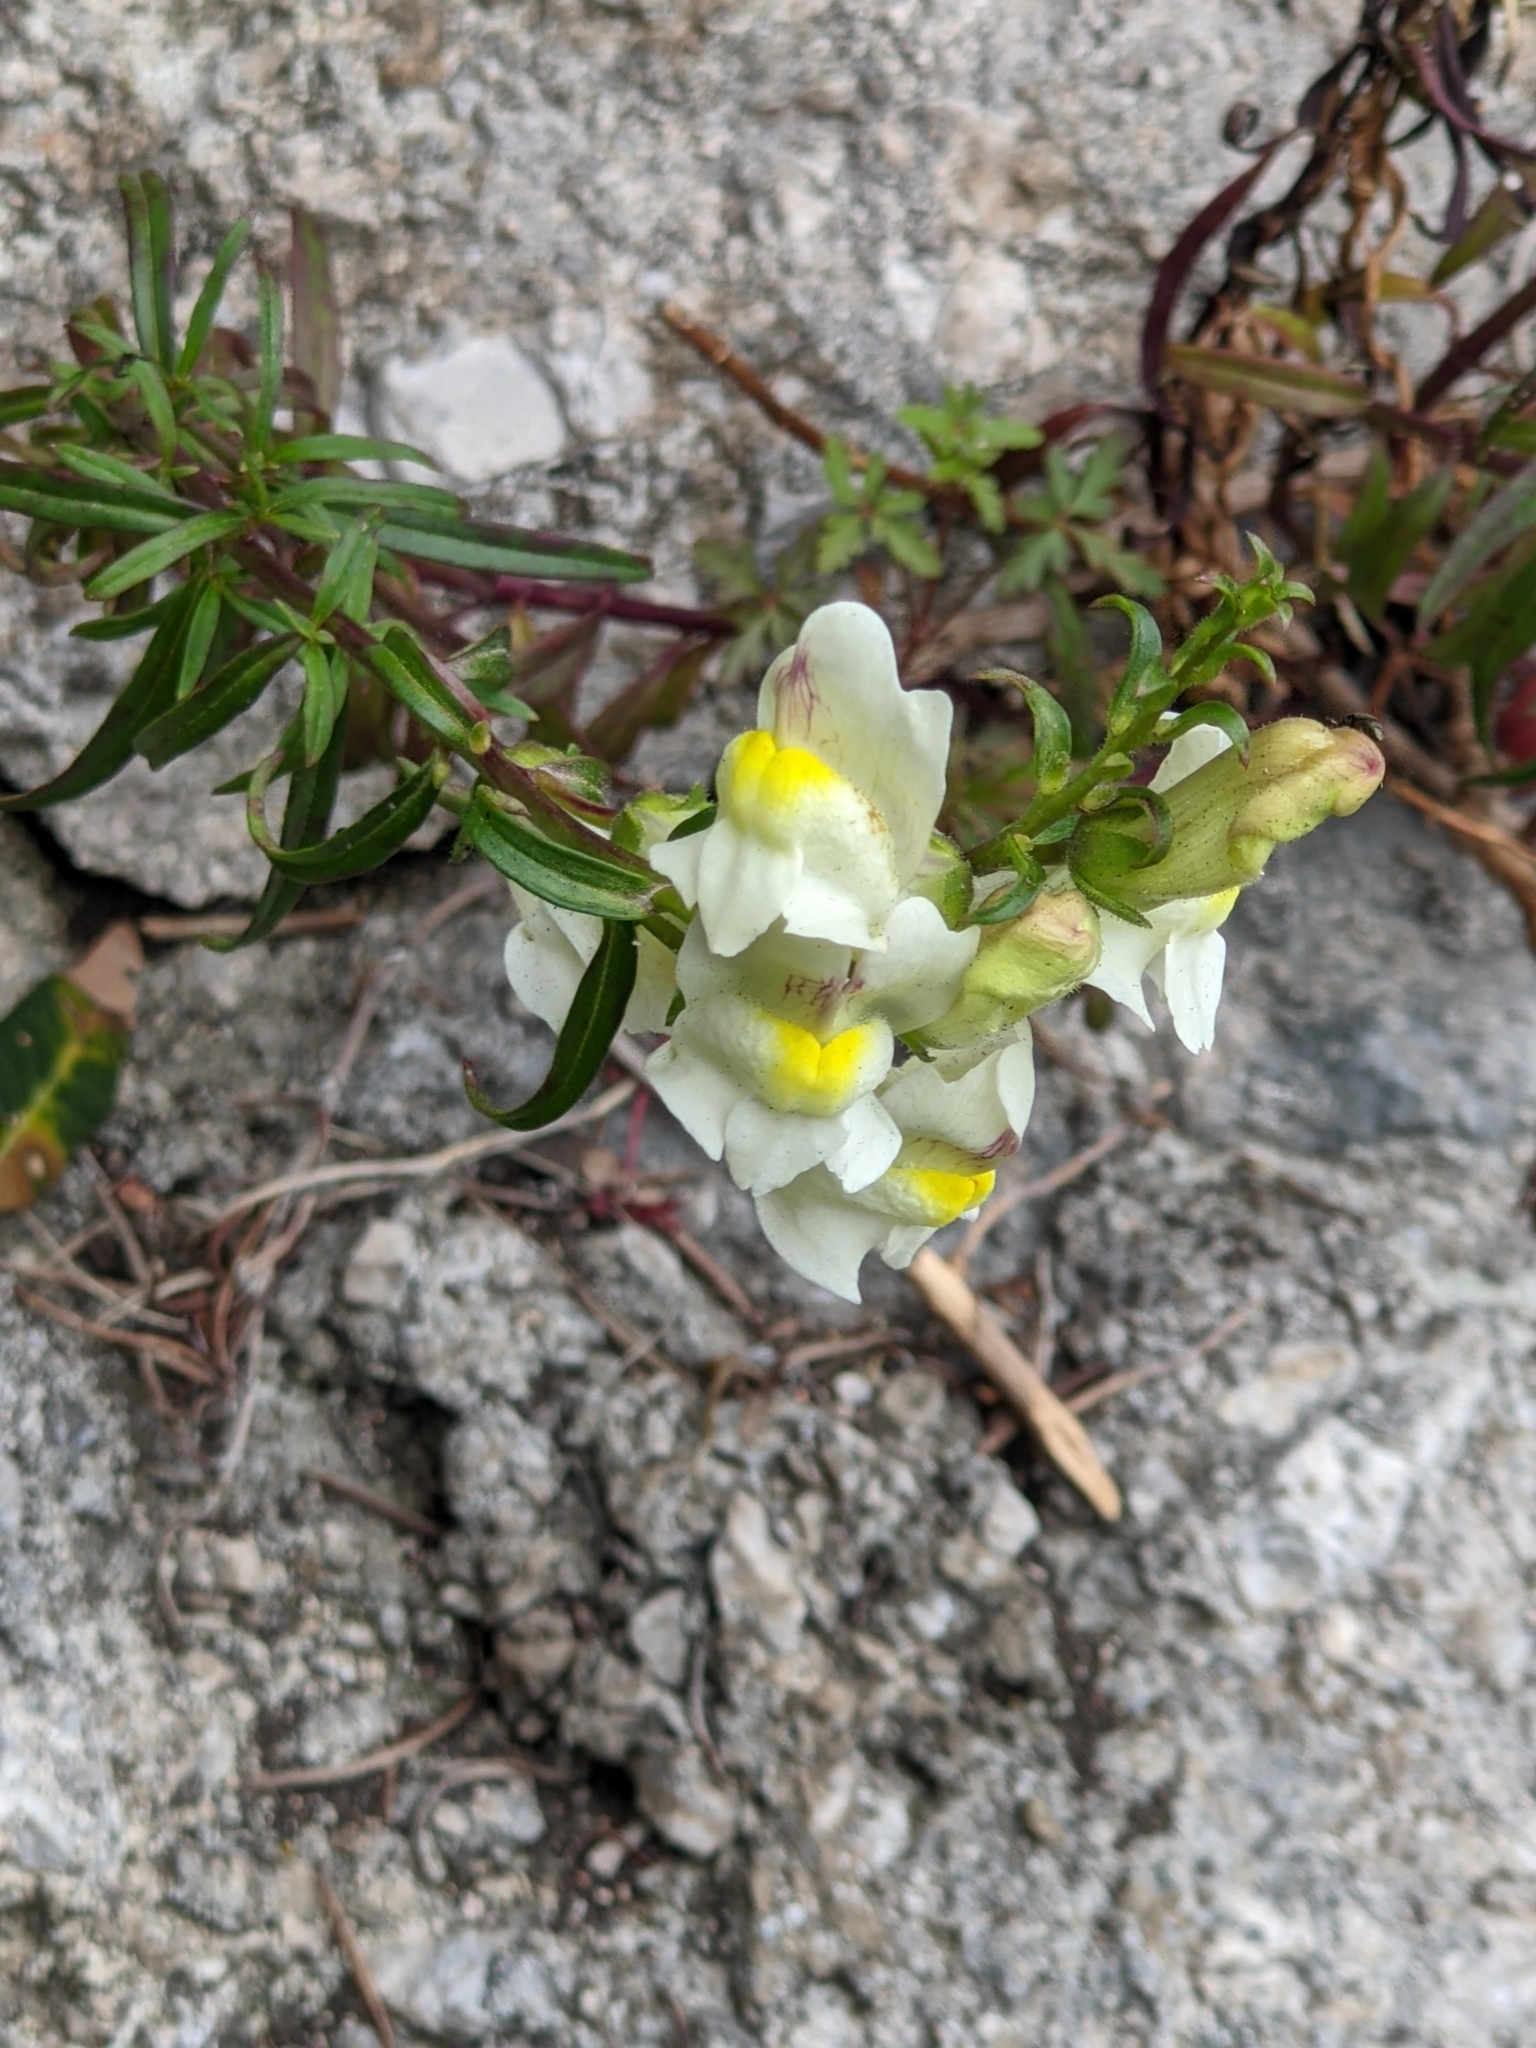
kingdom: Plantae
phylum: Tracheophyta
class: Magnoliopsida
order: Lamiales
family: Plantaginaceae
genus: Antirrhinum
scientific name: Antirrhinum siculum
